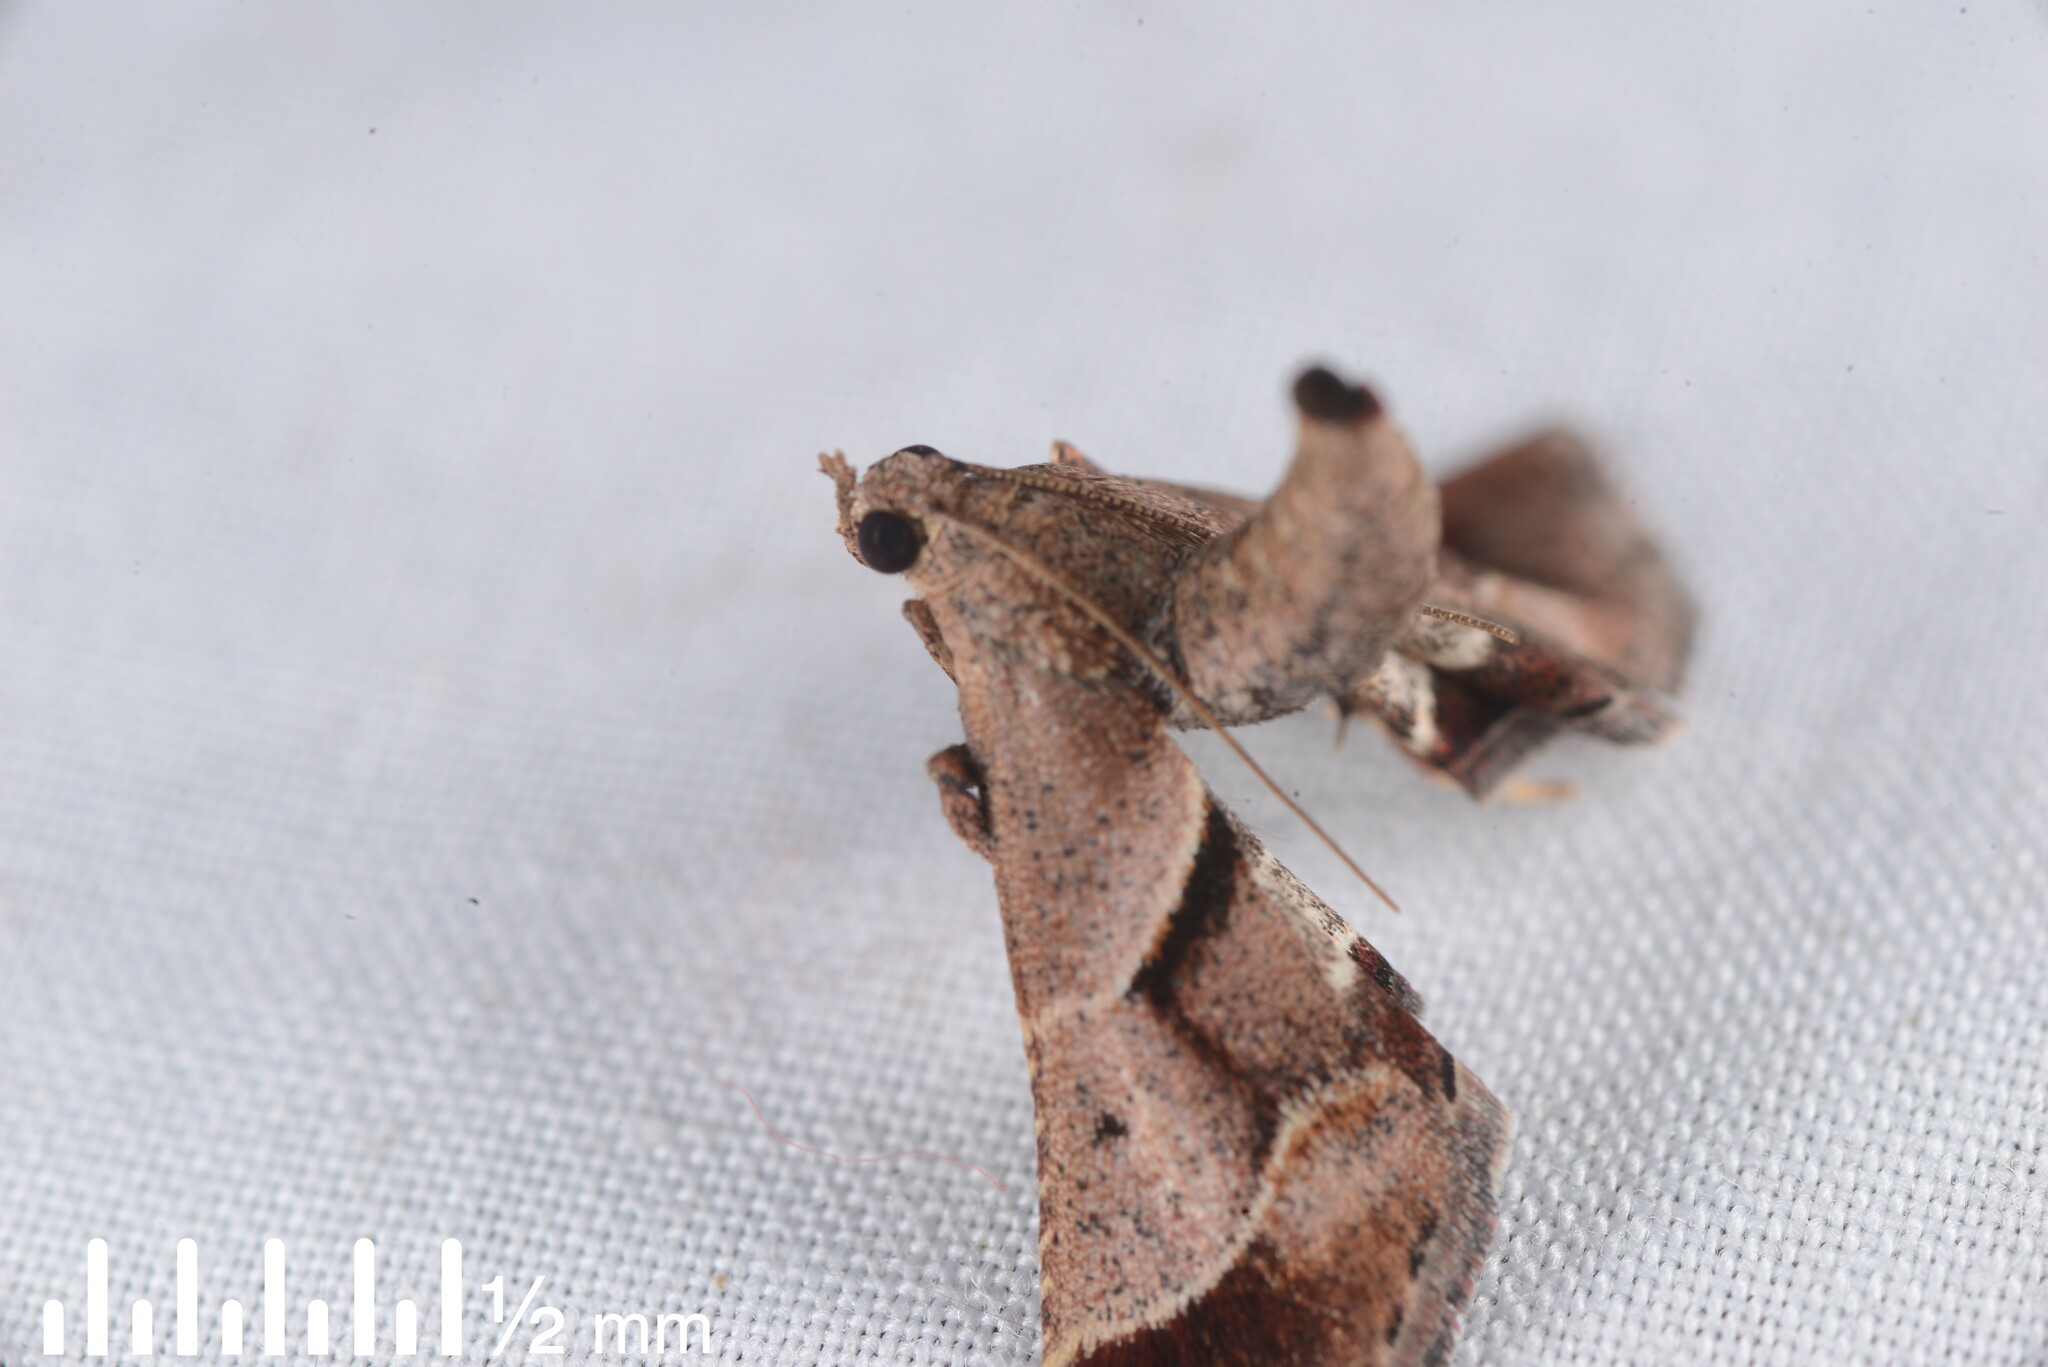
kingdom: Animalia
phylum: Arthropoda
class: Insecta
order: Lepidoptera
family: Pyralidae
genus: Gauna
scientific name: Gauna aegusalis
